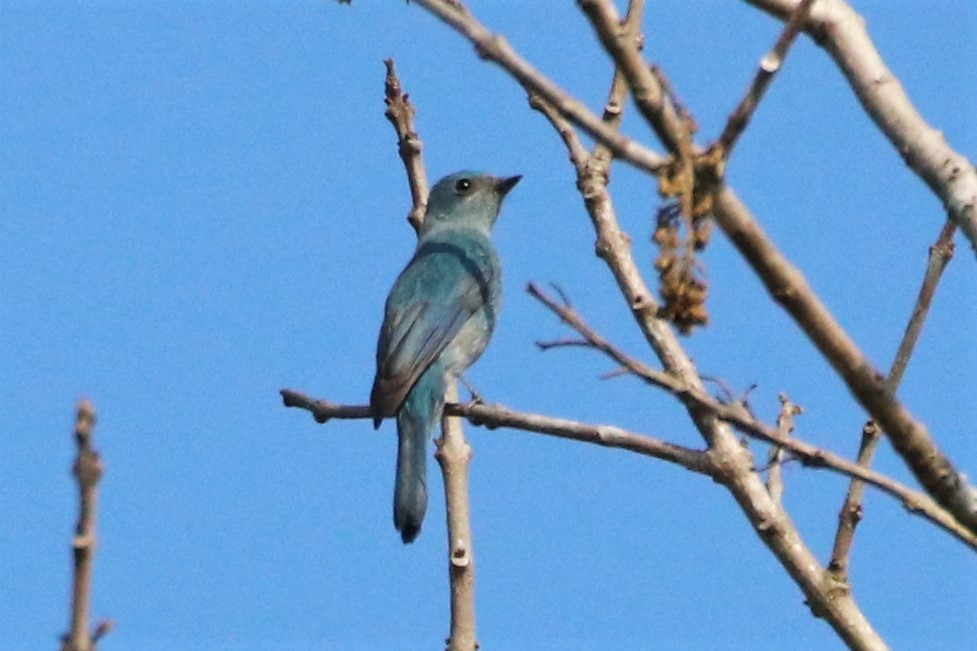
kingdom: Animalia
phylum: Chordata
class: Aves
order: Passeriformes
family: Muscicapidae
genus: Eumyias
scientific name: Eumyias thalassinus
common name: Verditer flycatcher
